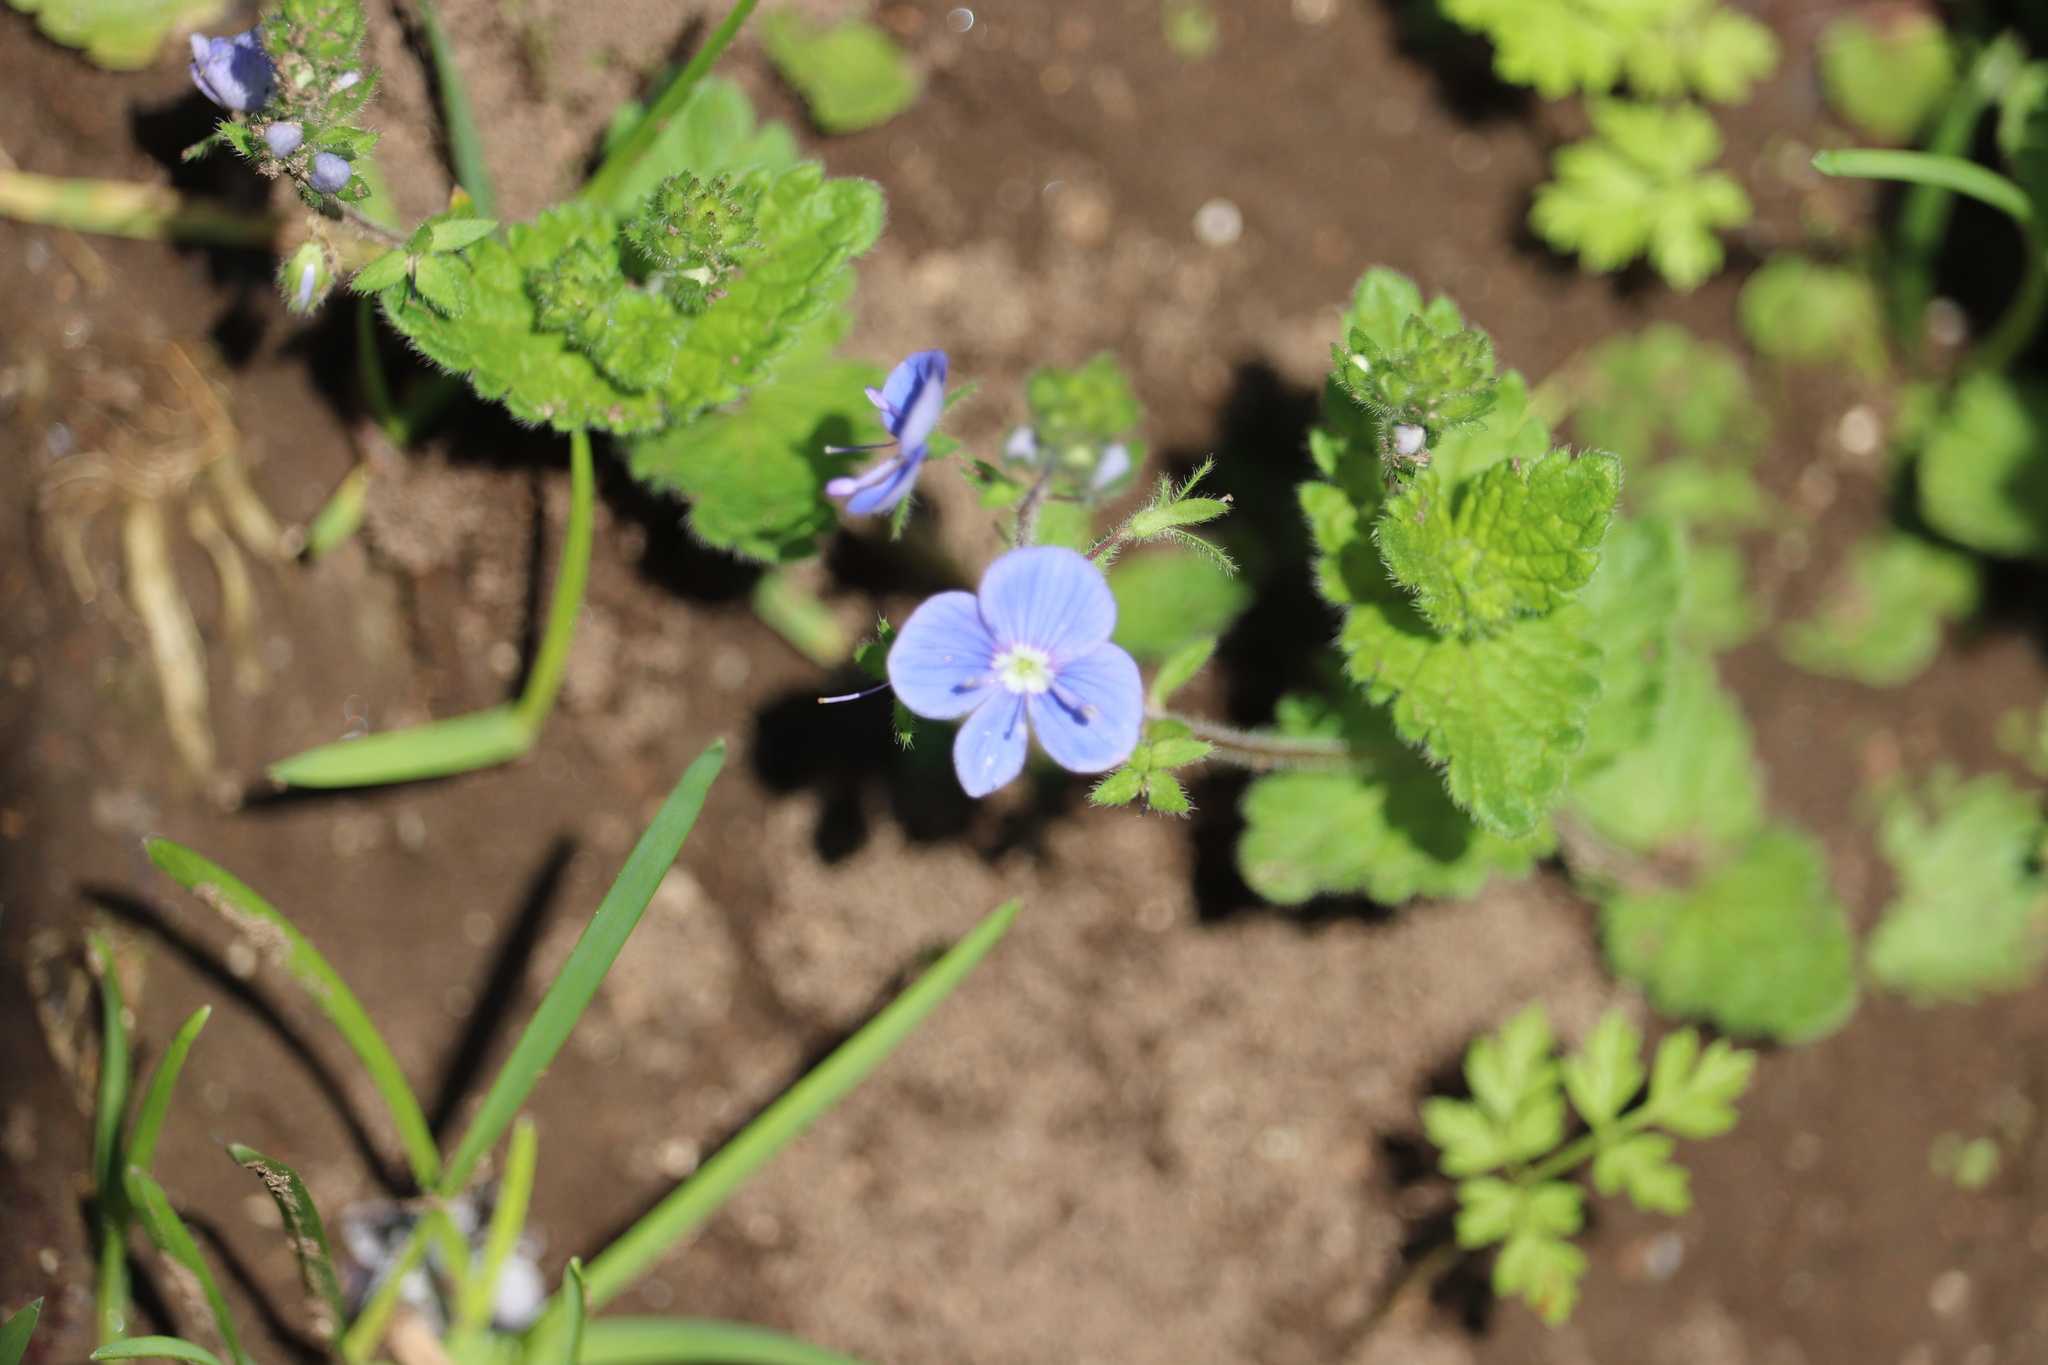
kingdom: Plantae
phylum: Tracheophyta
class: Magnoliopsida
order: Lamiales
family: Plantaginaceae
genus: Veronica
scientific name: Veronica chamaedrys
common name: Germander speedwell
